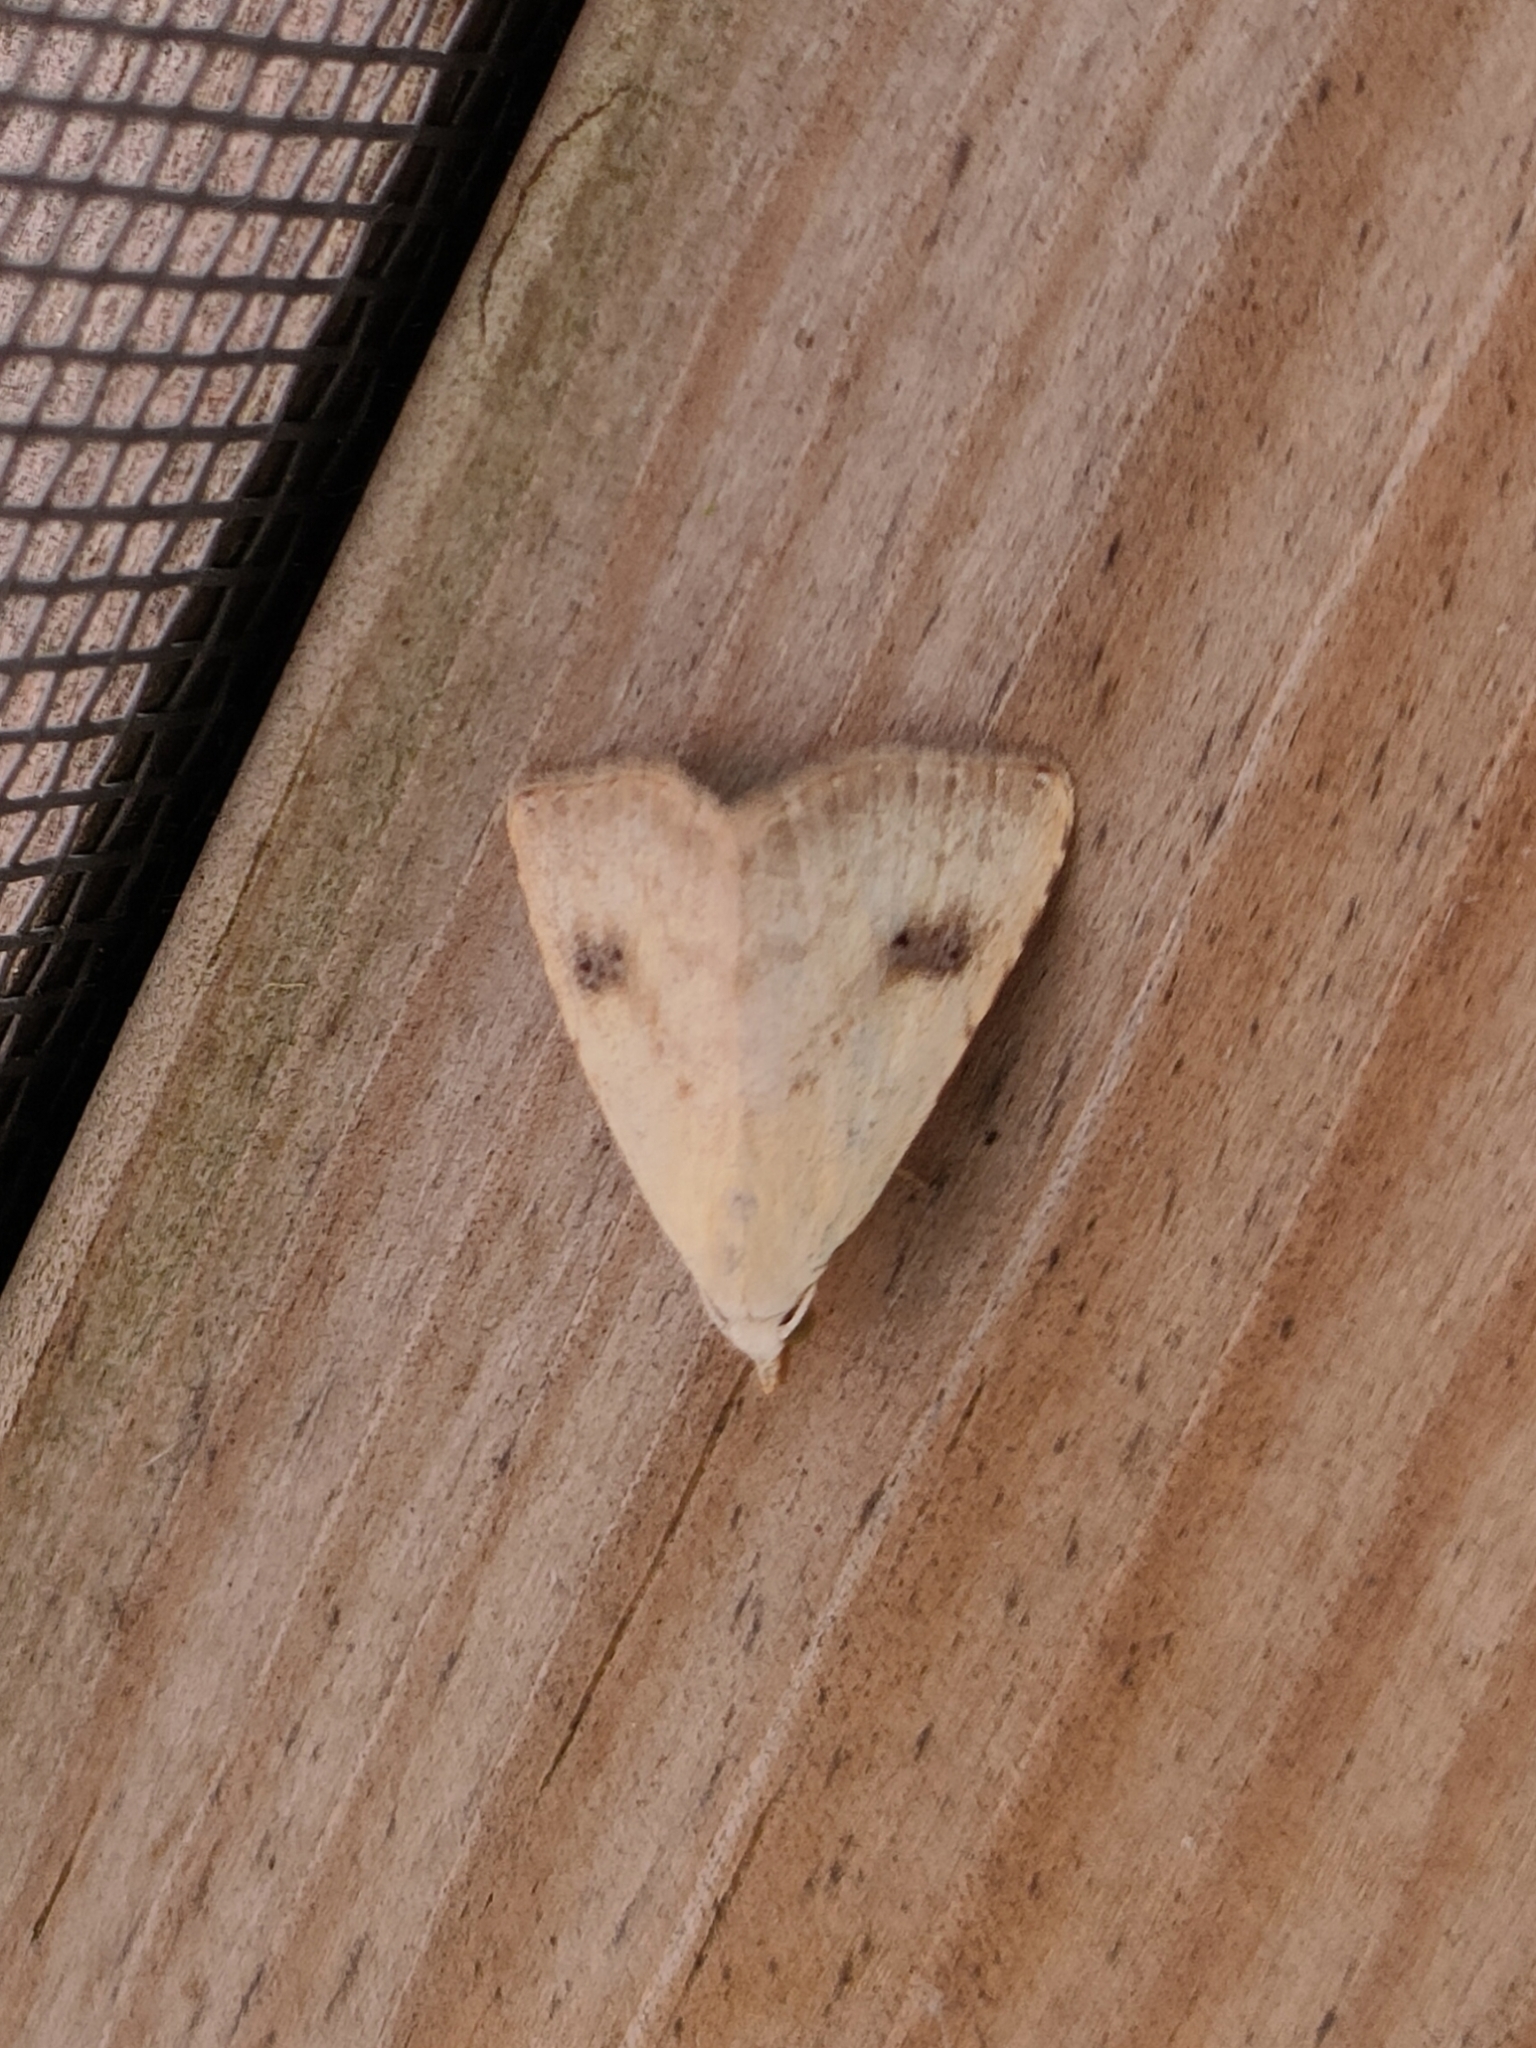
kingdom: Animalia
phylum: Arthropoda
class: Insecta
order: Lepidoptera
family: Erebidae
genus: Rivula
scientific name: Rivula sericealis
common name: Straw dot
